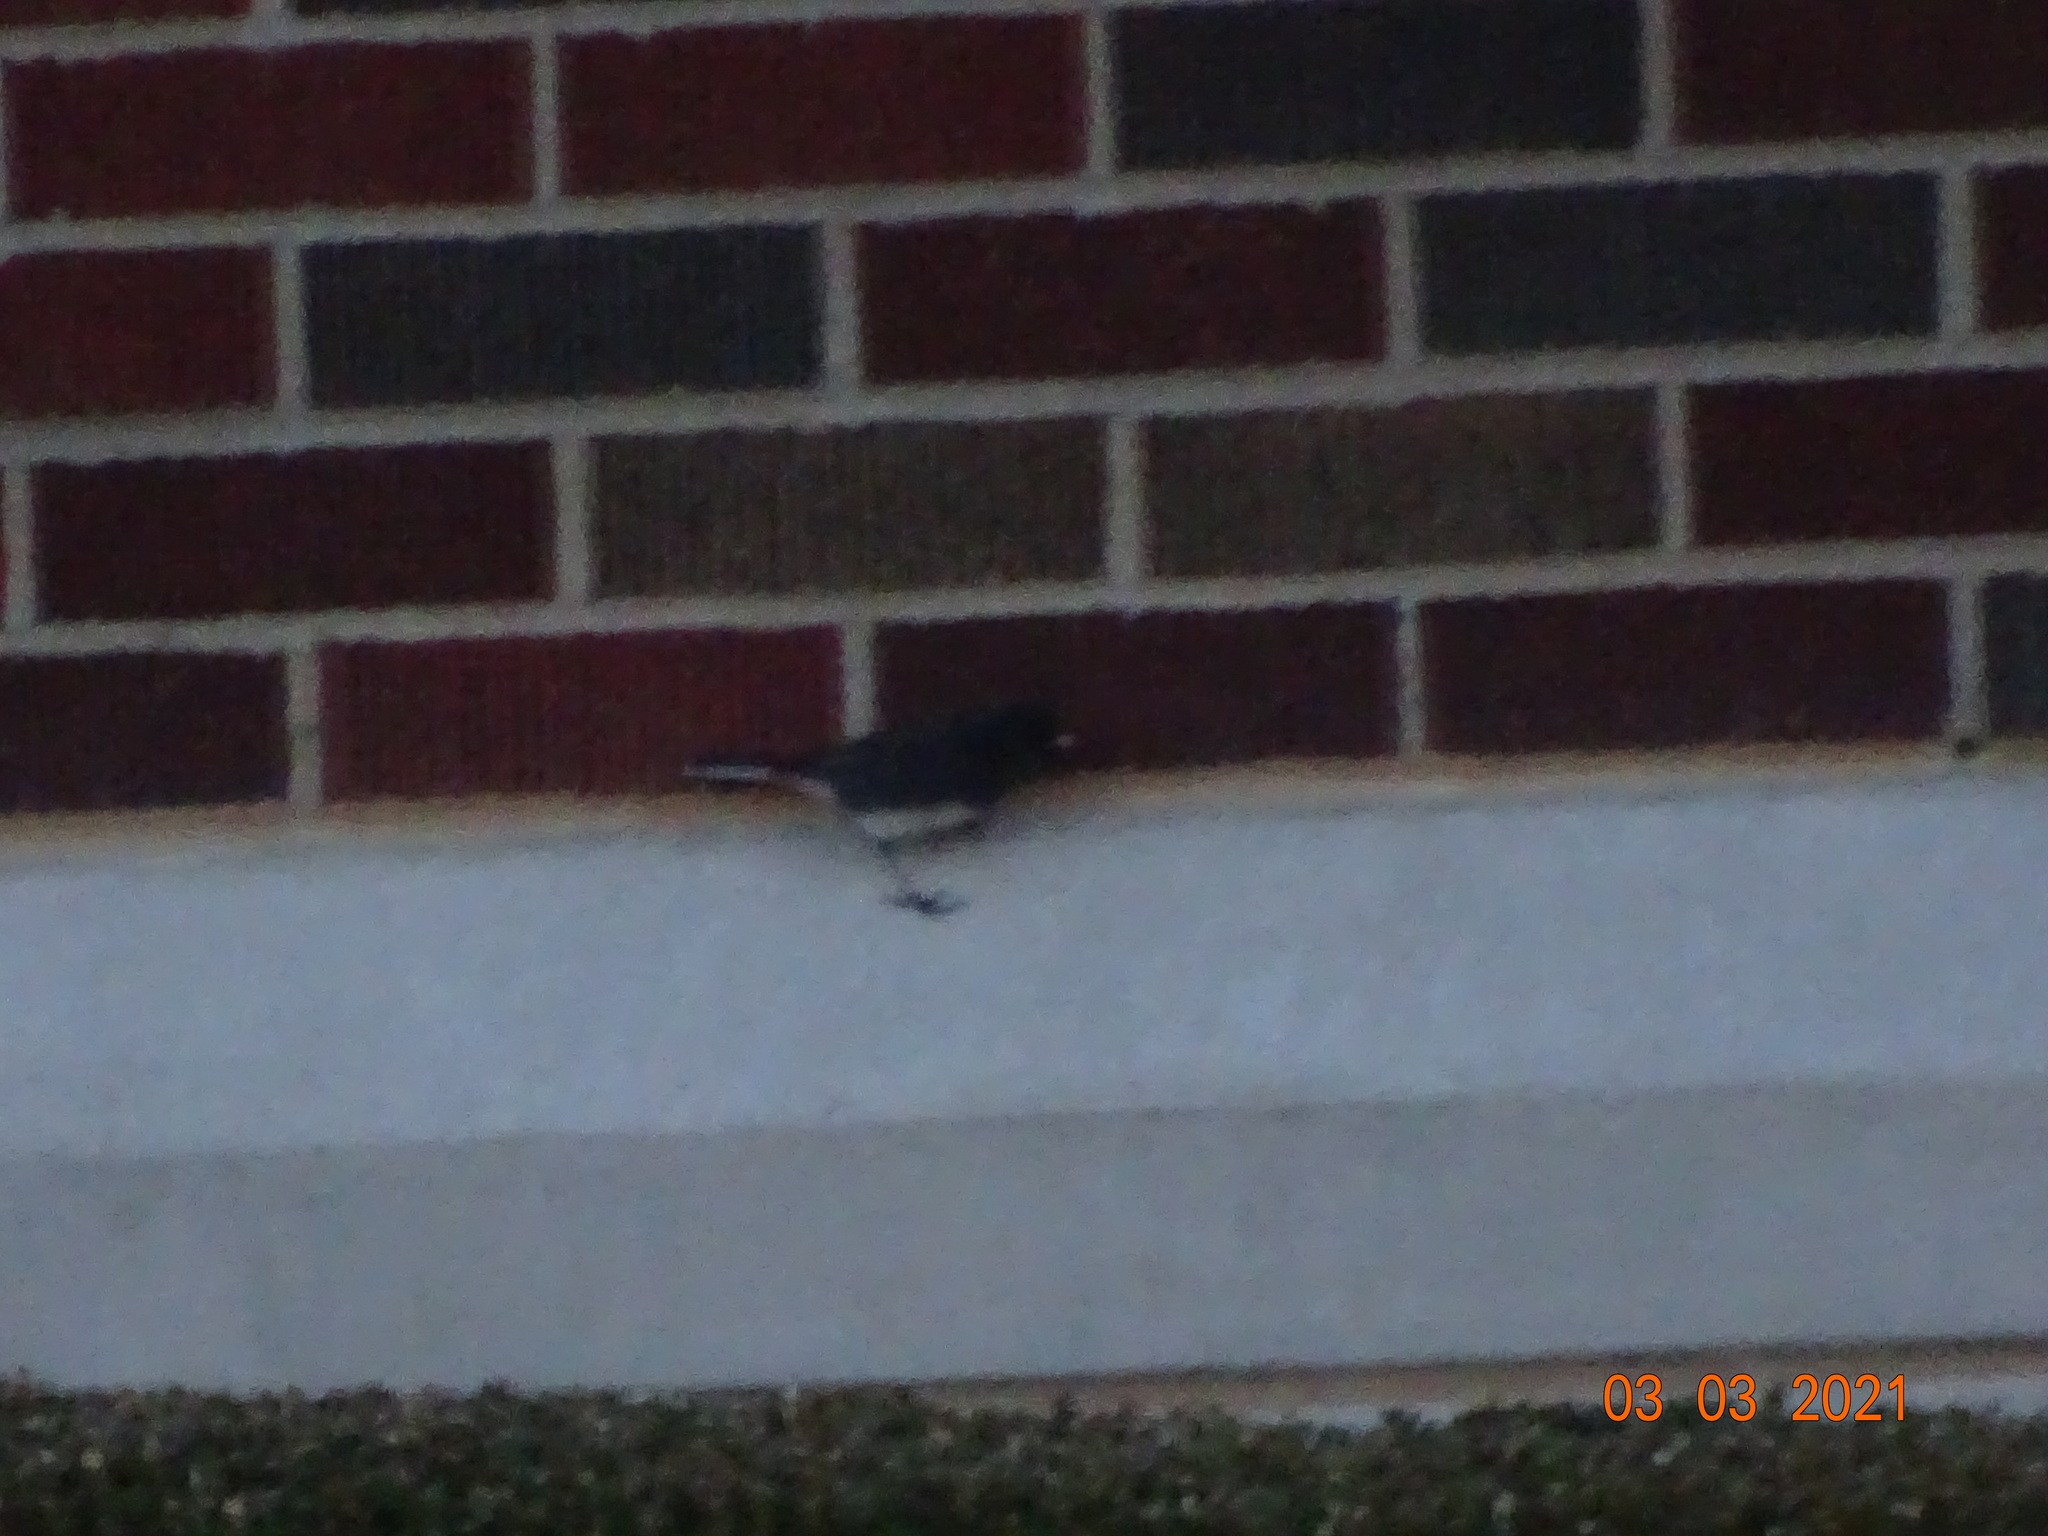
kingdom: Animalia
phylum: Chordata
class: Aves
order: Passeriformes
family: Passerellidae
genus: Junco
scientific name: Junco hyemalis
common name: Dark-eyed junco
